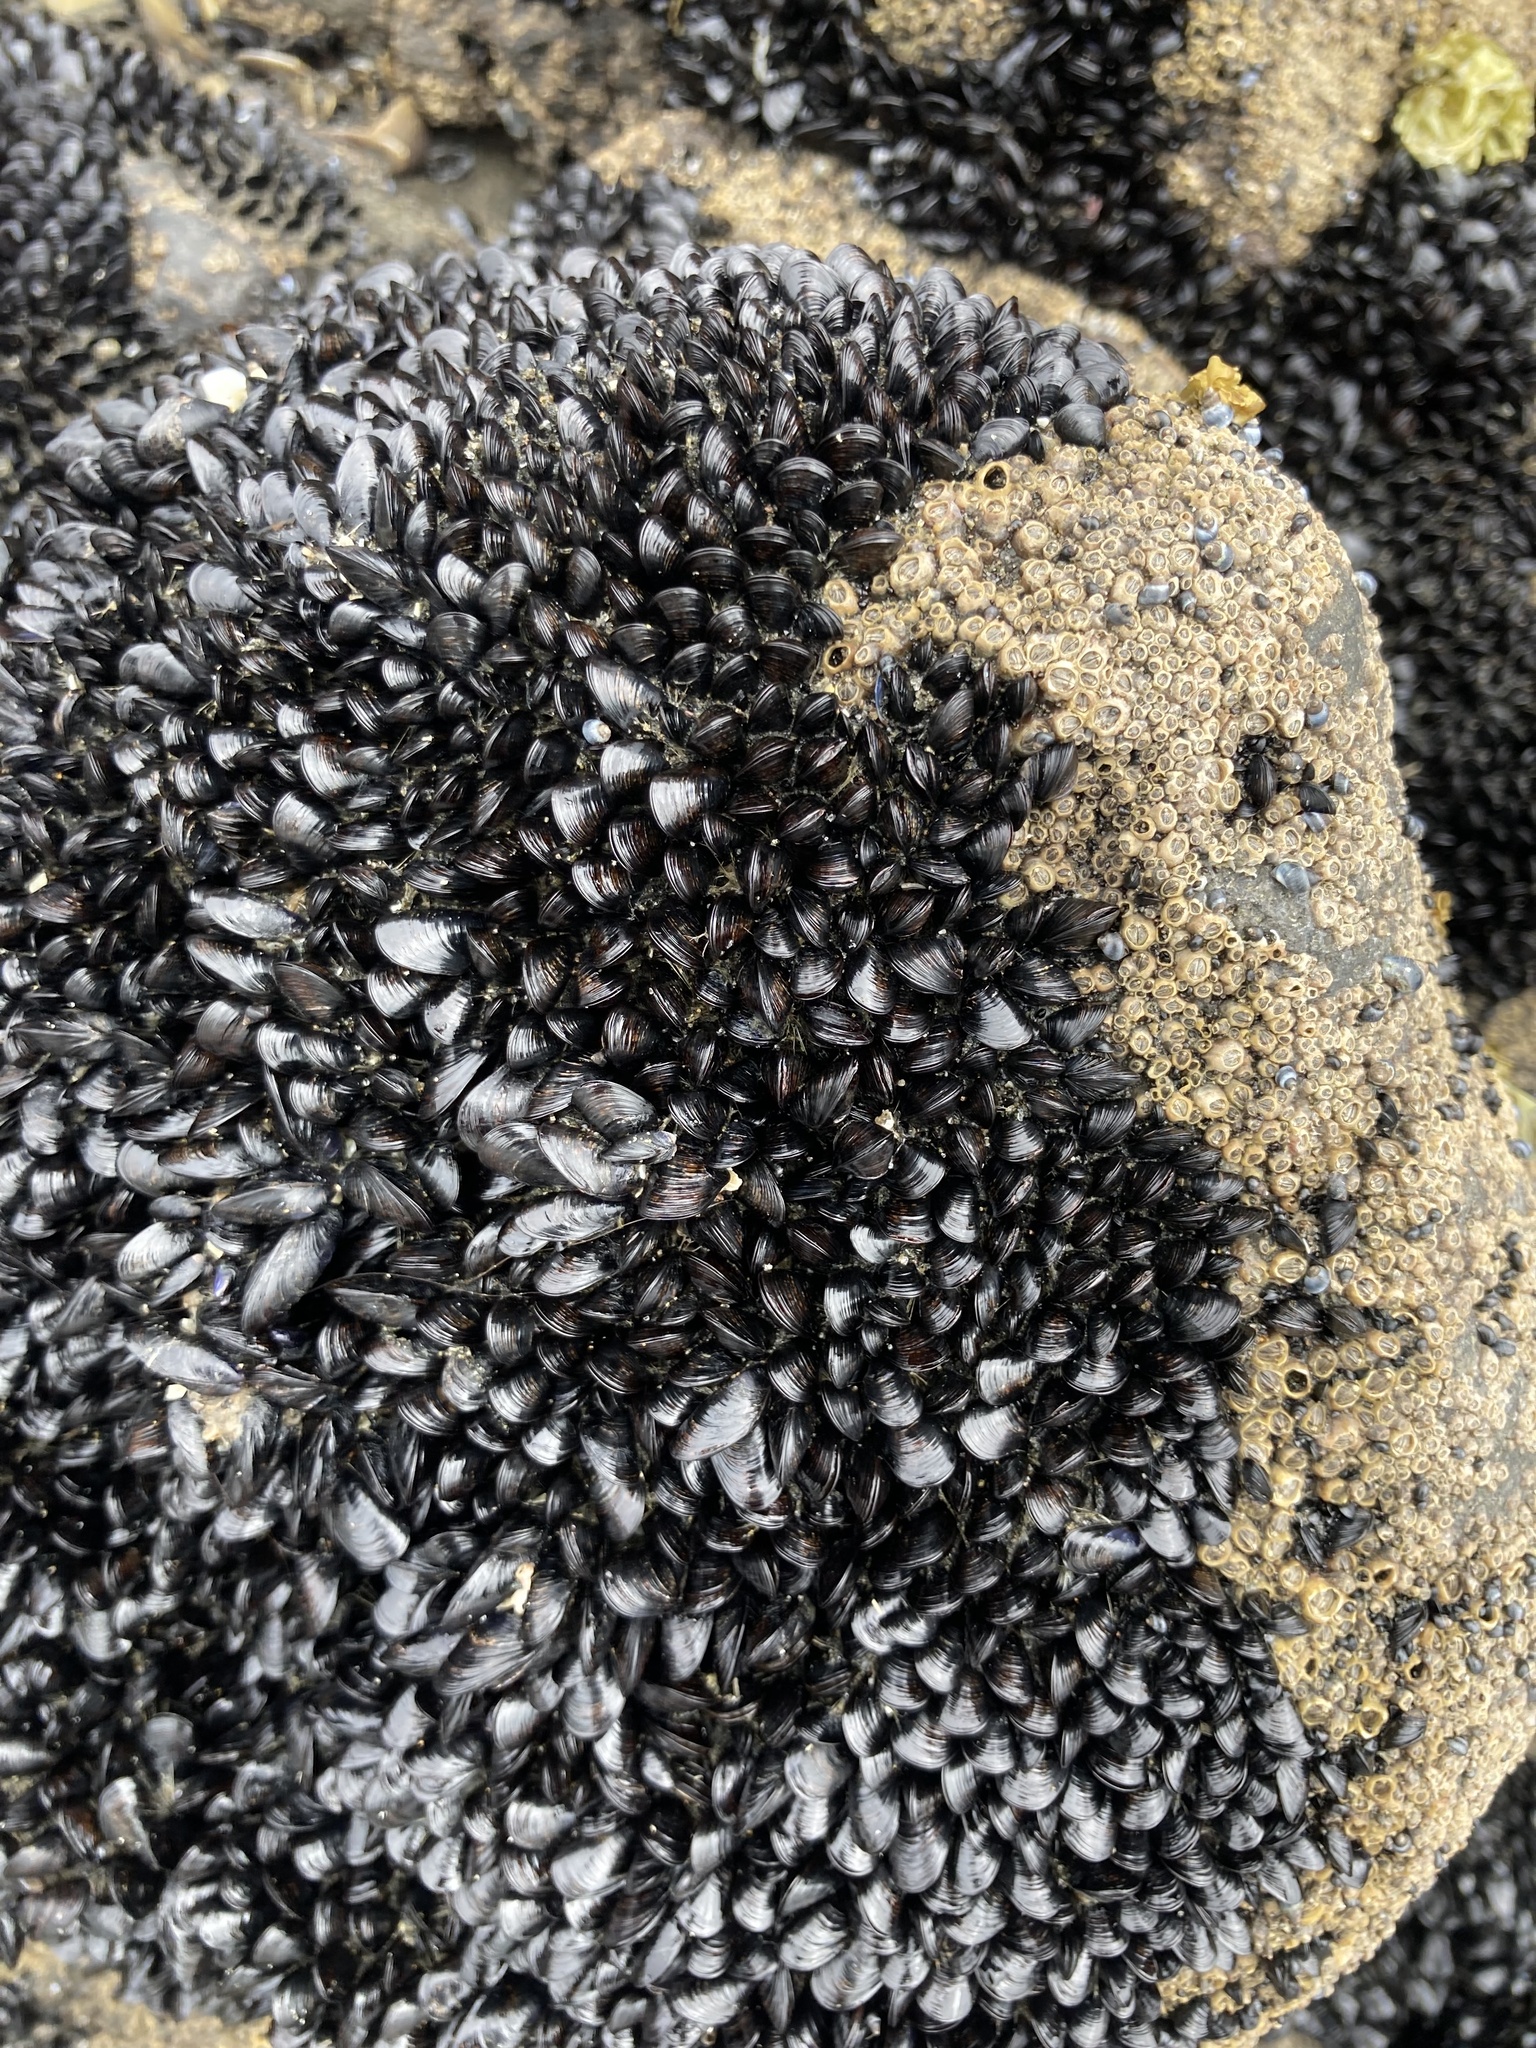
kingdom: Animalia
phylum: Mollusca
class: Bivalvia
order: Mytilida
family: Mytilidae
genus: Xenostrobus
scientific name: Xenostrobus neozelanicus
